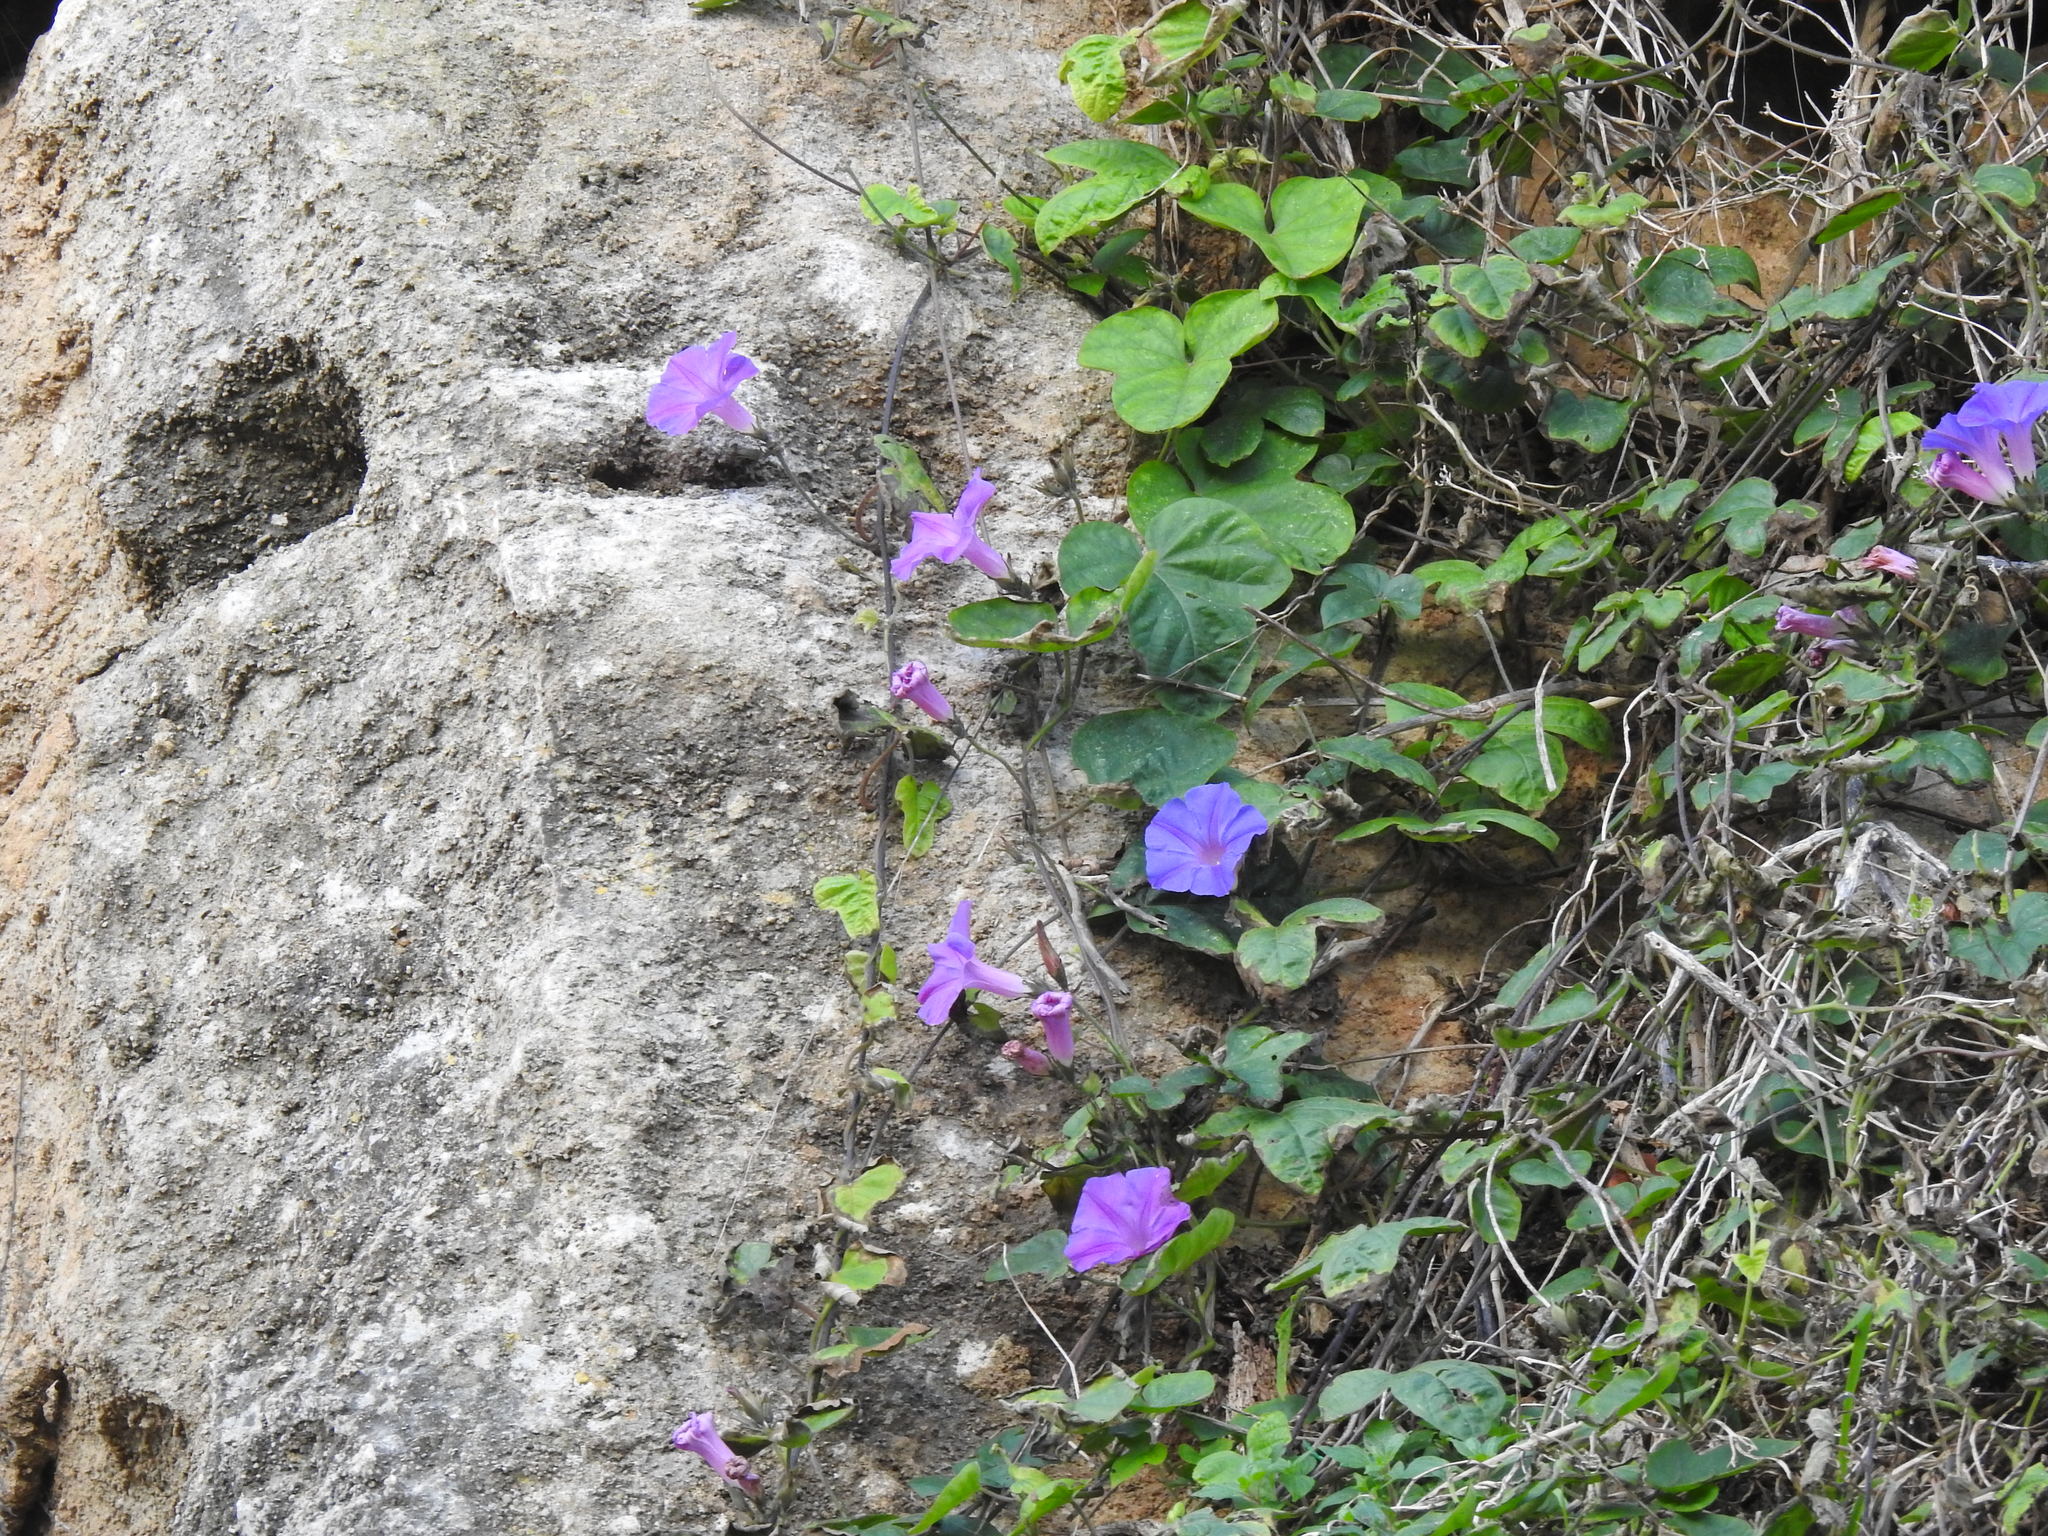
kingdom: Plantae
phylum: Tracheophyta
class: Magnoliopsida
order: Solanales
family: Convolvulaceae
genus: Ipomoea
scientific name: Ipomoea indica
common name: Blue dawnflower
